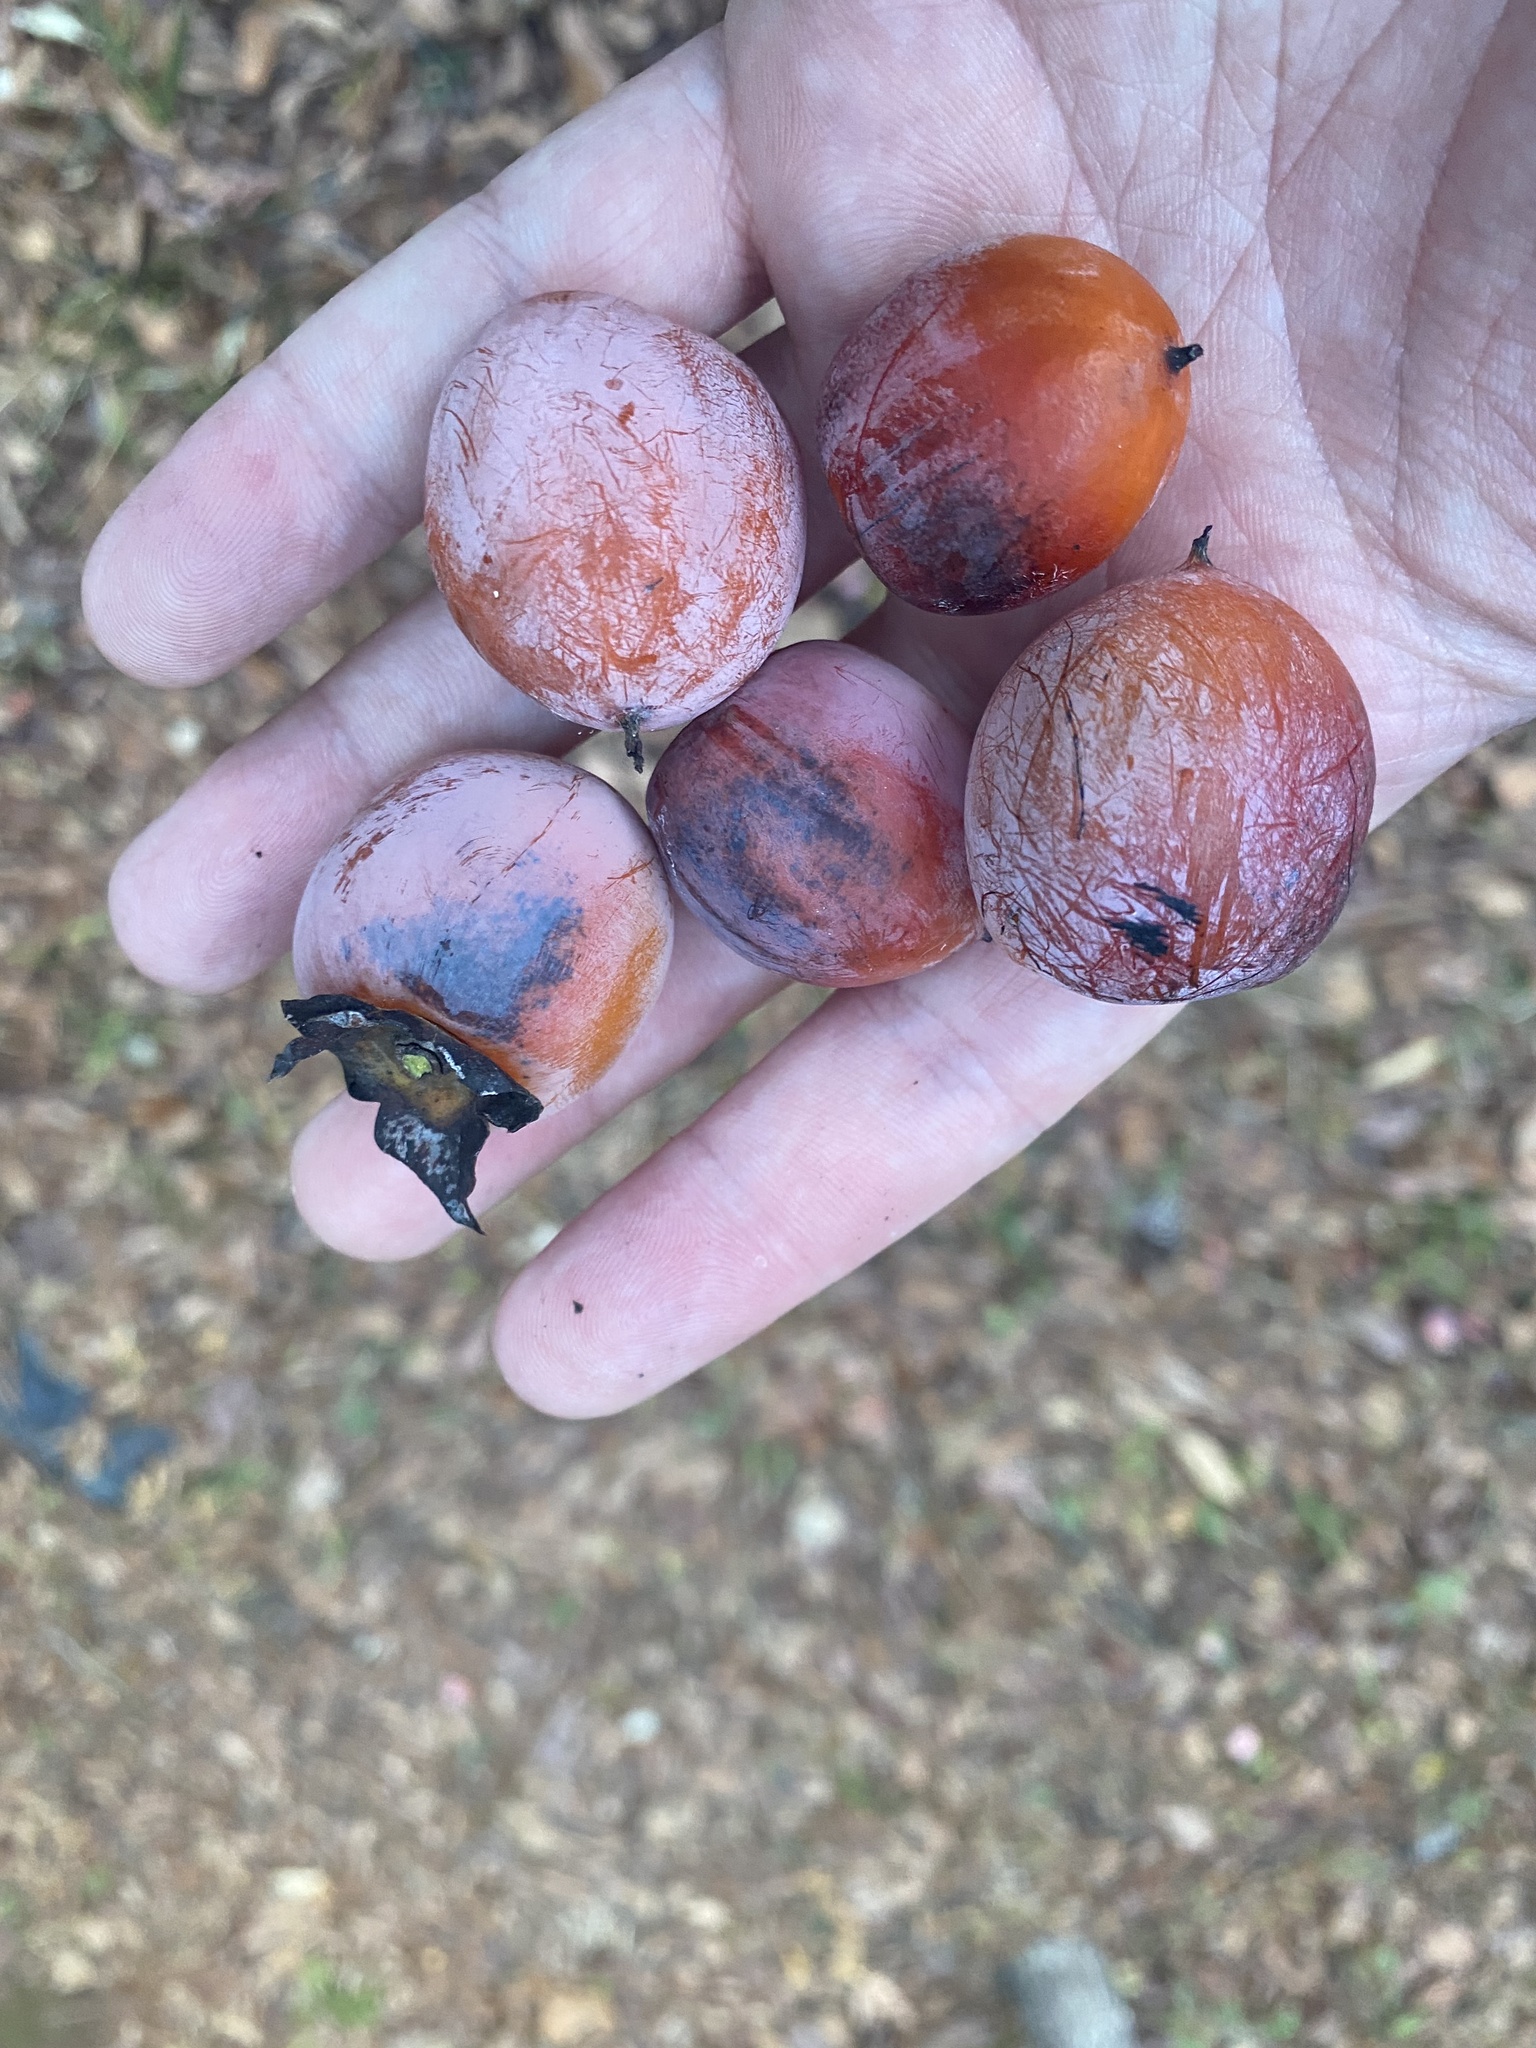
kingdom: Plantae
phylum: Tracheophyta
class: Magnoliopsida
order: Ericales
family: Ebenaceae
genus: Diospyros
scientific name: Diospyros virginiana
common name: Persimmon
